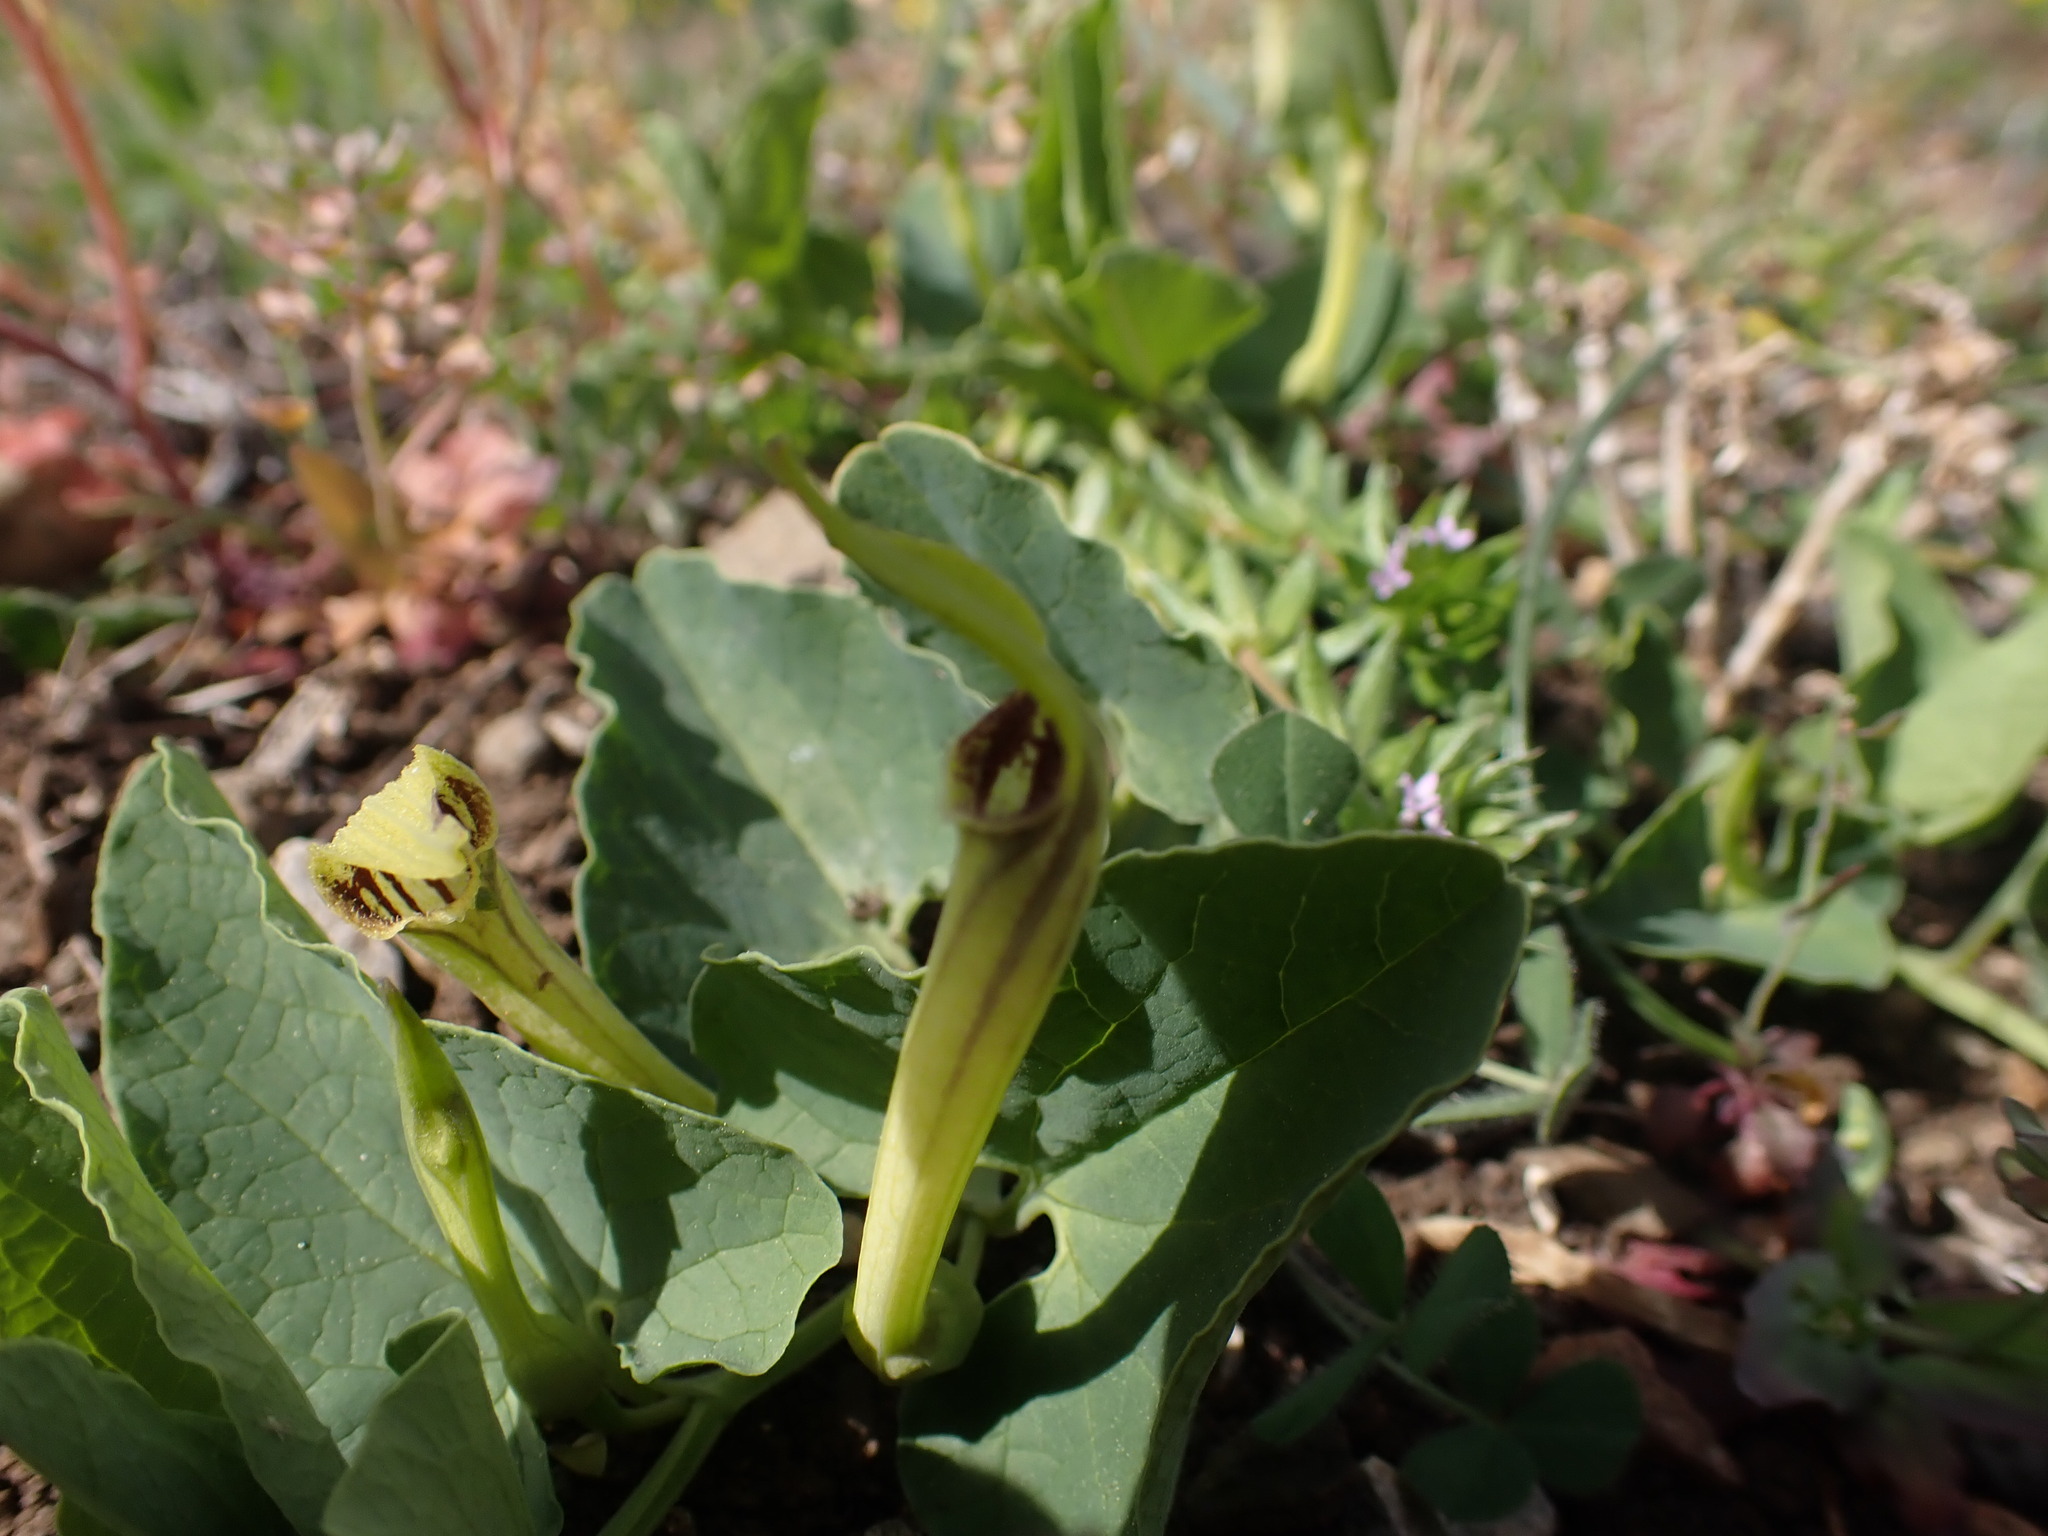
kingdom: Plantae
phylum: Tracheophyta
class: Magnoliopsida
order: Piperales
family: Aristolochiaceae
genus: Aristolochia
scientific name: Aristolochia paucinervis
